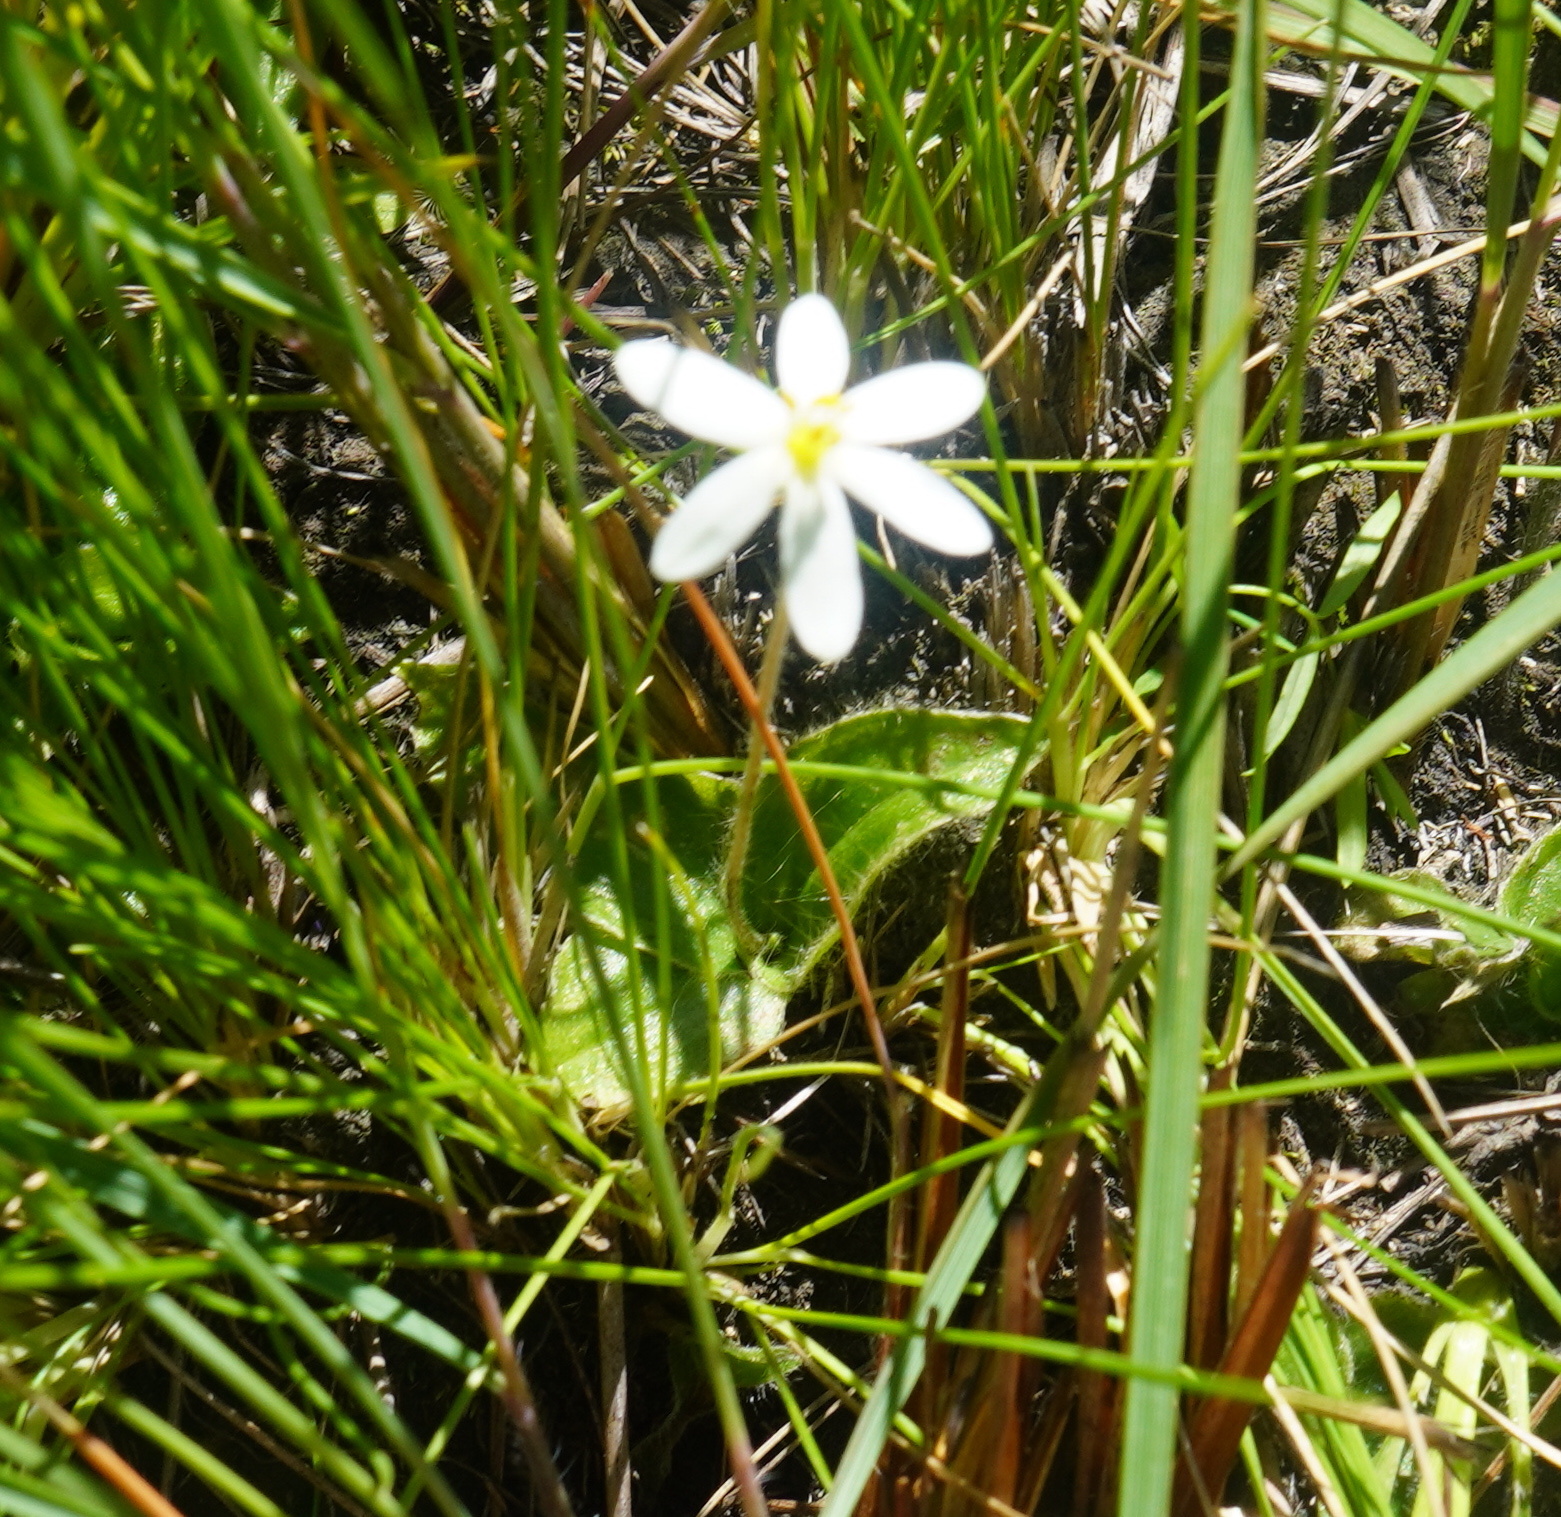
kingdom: Plantae
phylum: Tracheophyta
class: Liliopsida
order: Asparagales
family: Hypoxidaceae
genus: Hypoxis
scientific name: Hypoxis parvula
